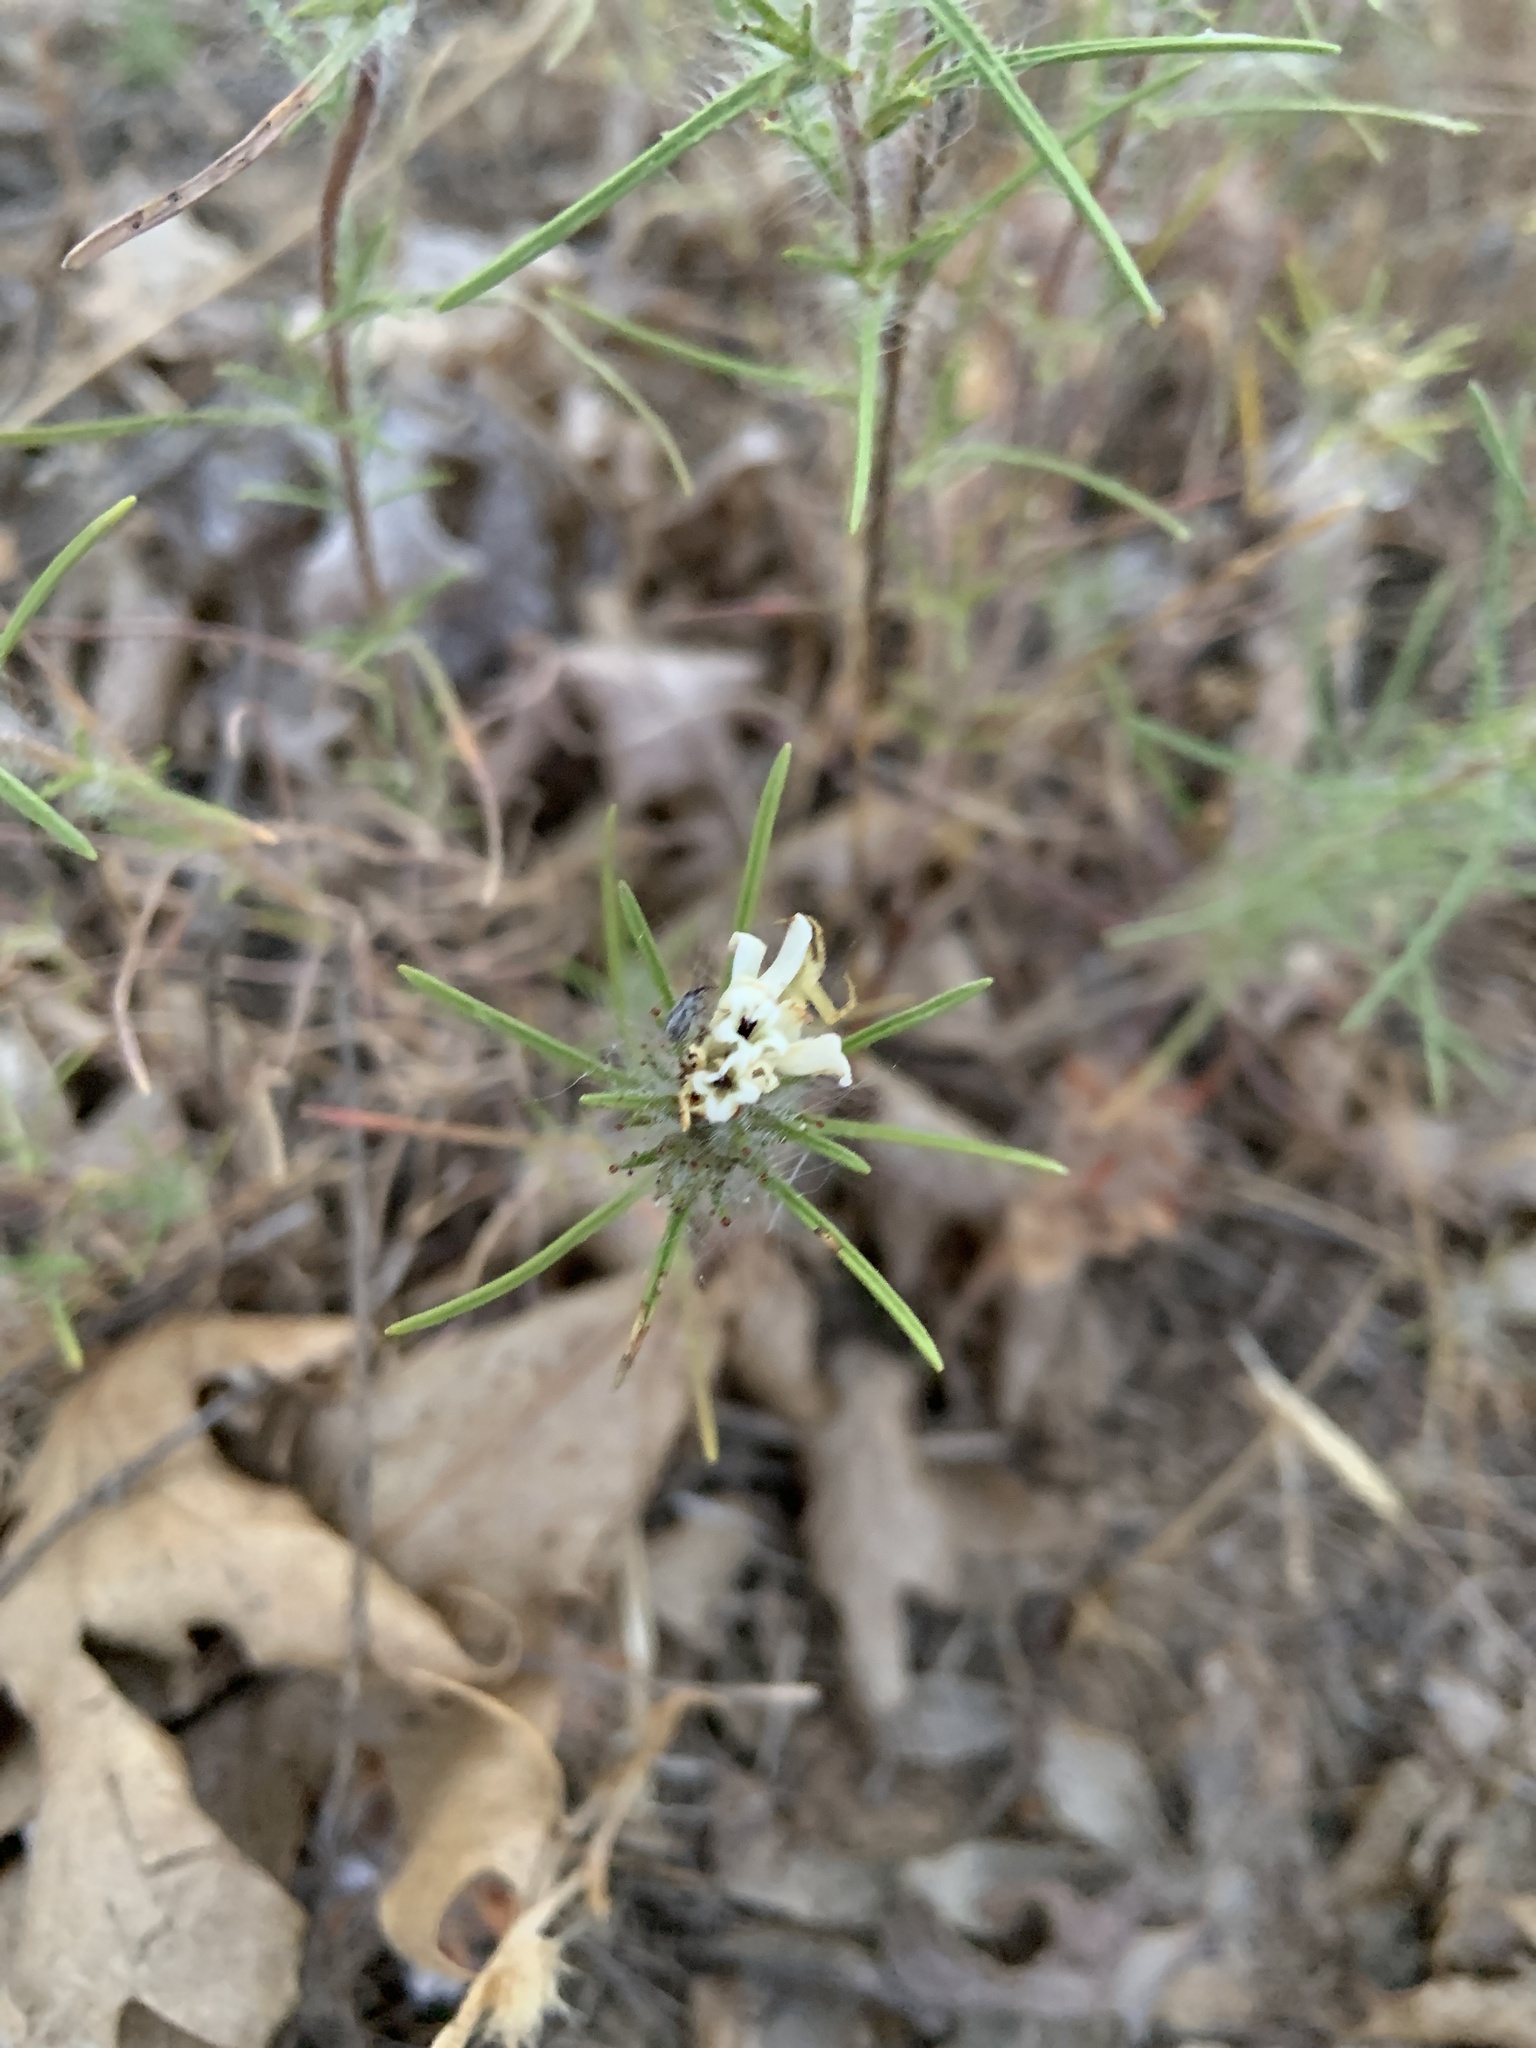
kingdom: Plantae
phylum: Tracheophyta
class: Magnoliopsida
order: Asterales
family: Asteraceae
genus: Calycadenia
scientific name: Calycadenia multiglandulosa
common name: Sticky calycadenia
